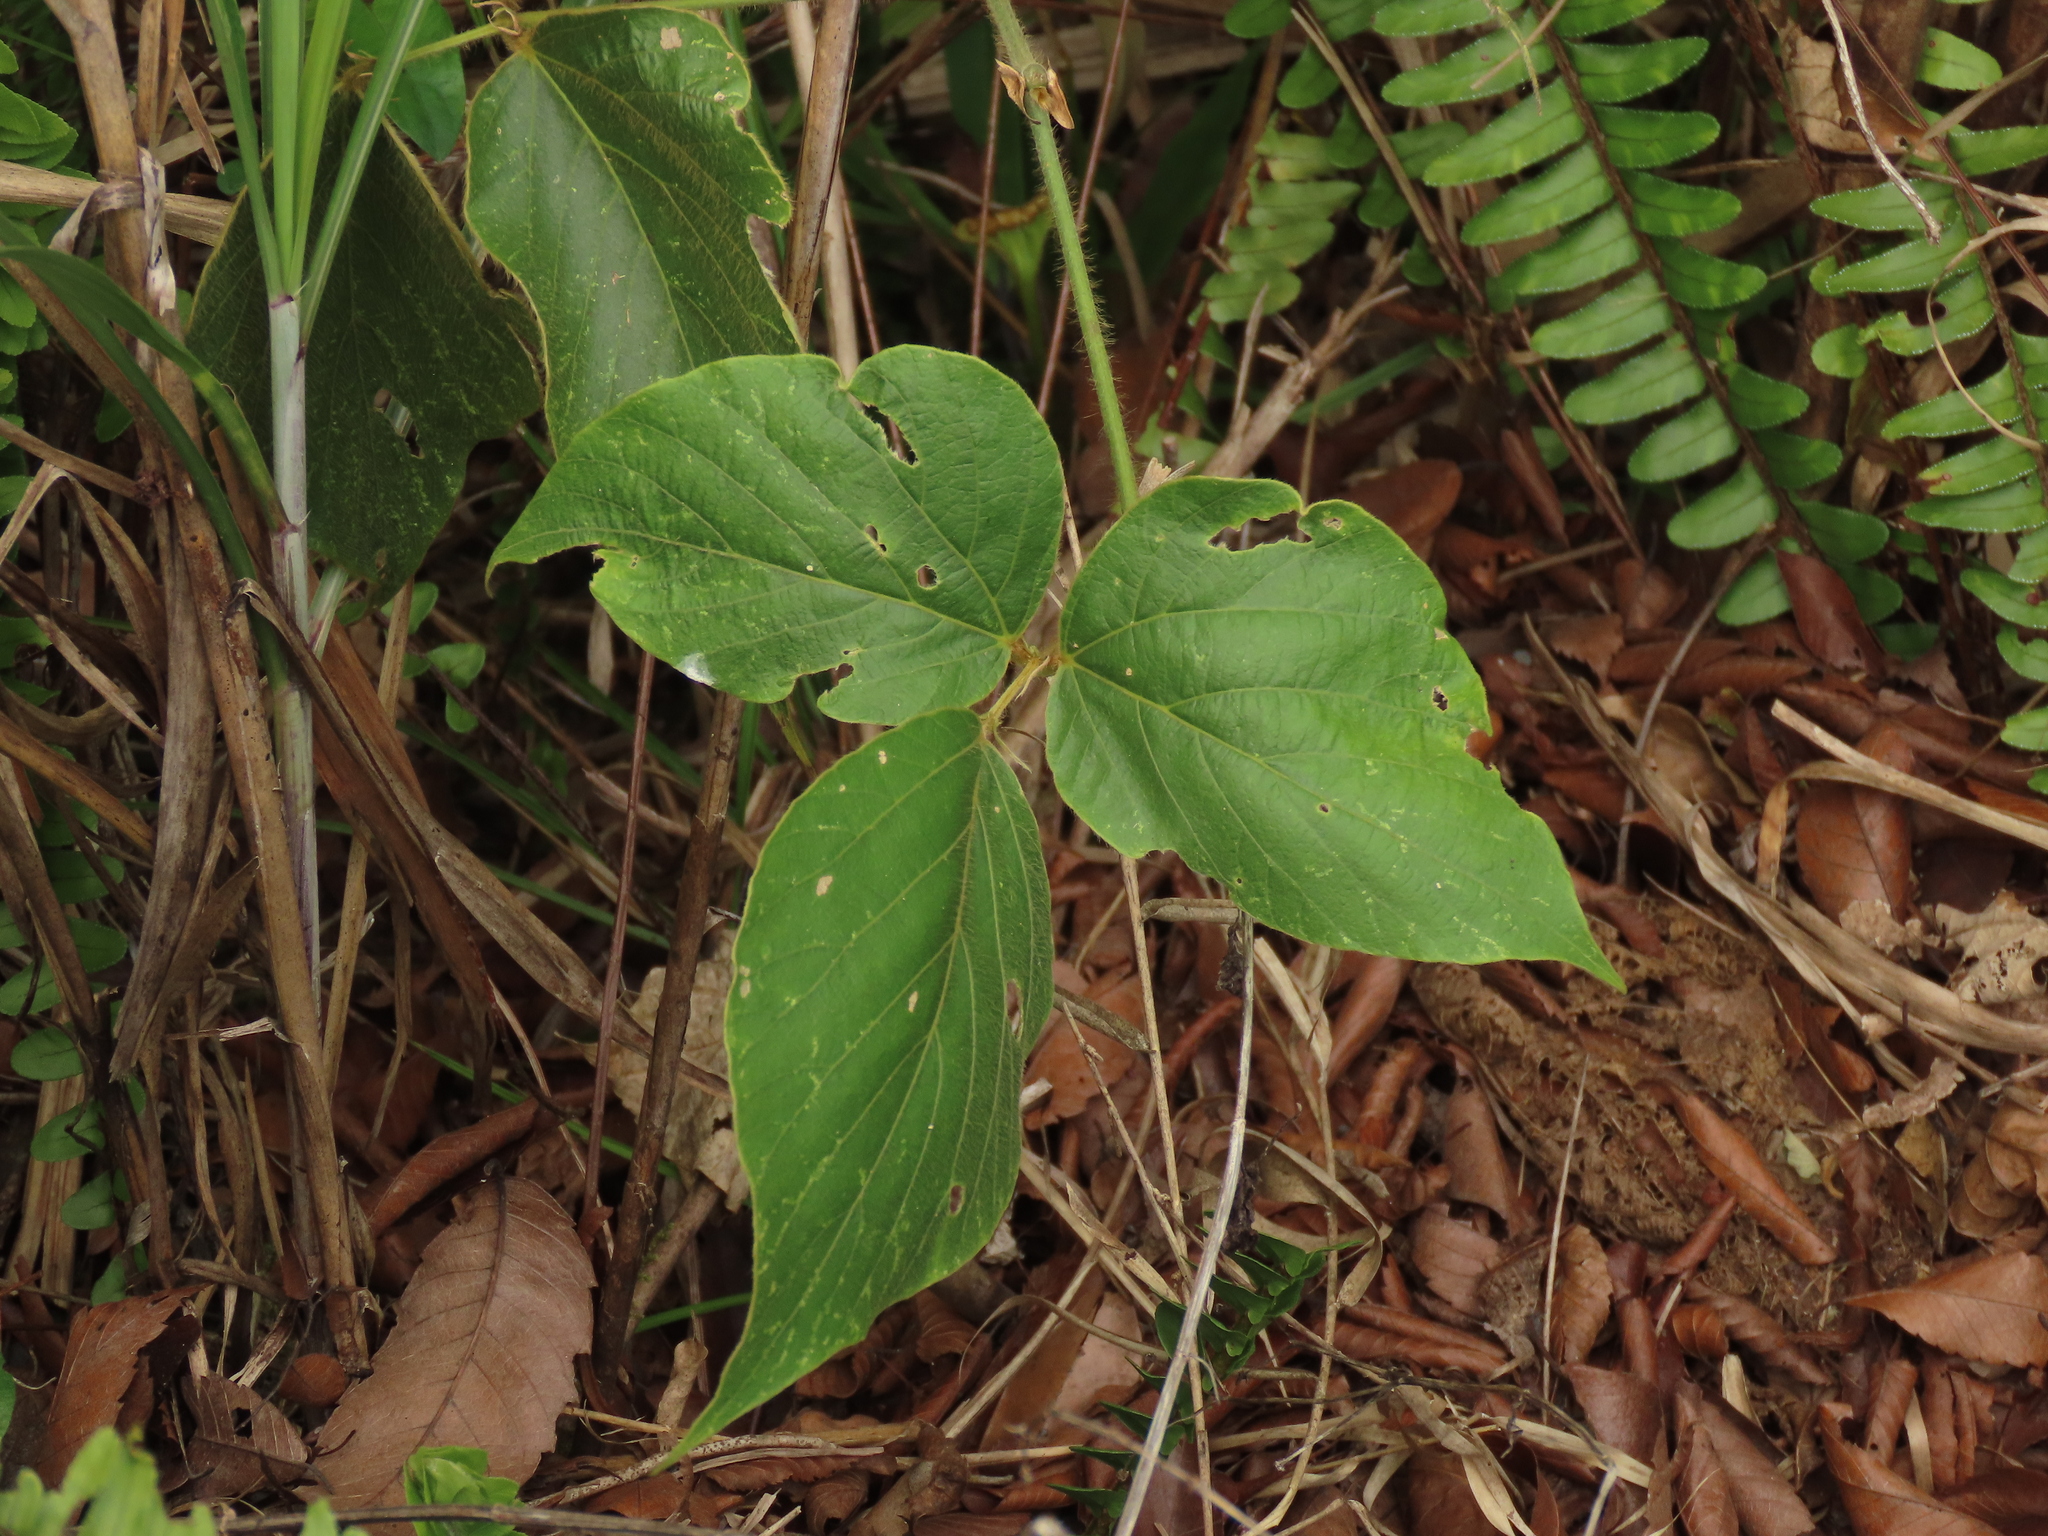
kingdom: Plantae
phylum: Tracheophyta
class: Magnoliopsida
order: Fabales
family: Fabaceae
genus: Pueraria
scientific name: Pueraria montana
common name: Kudzu
